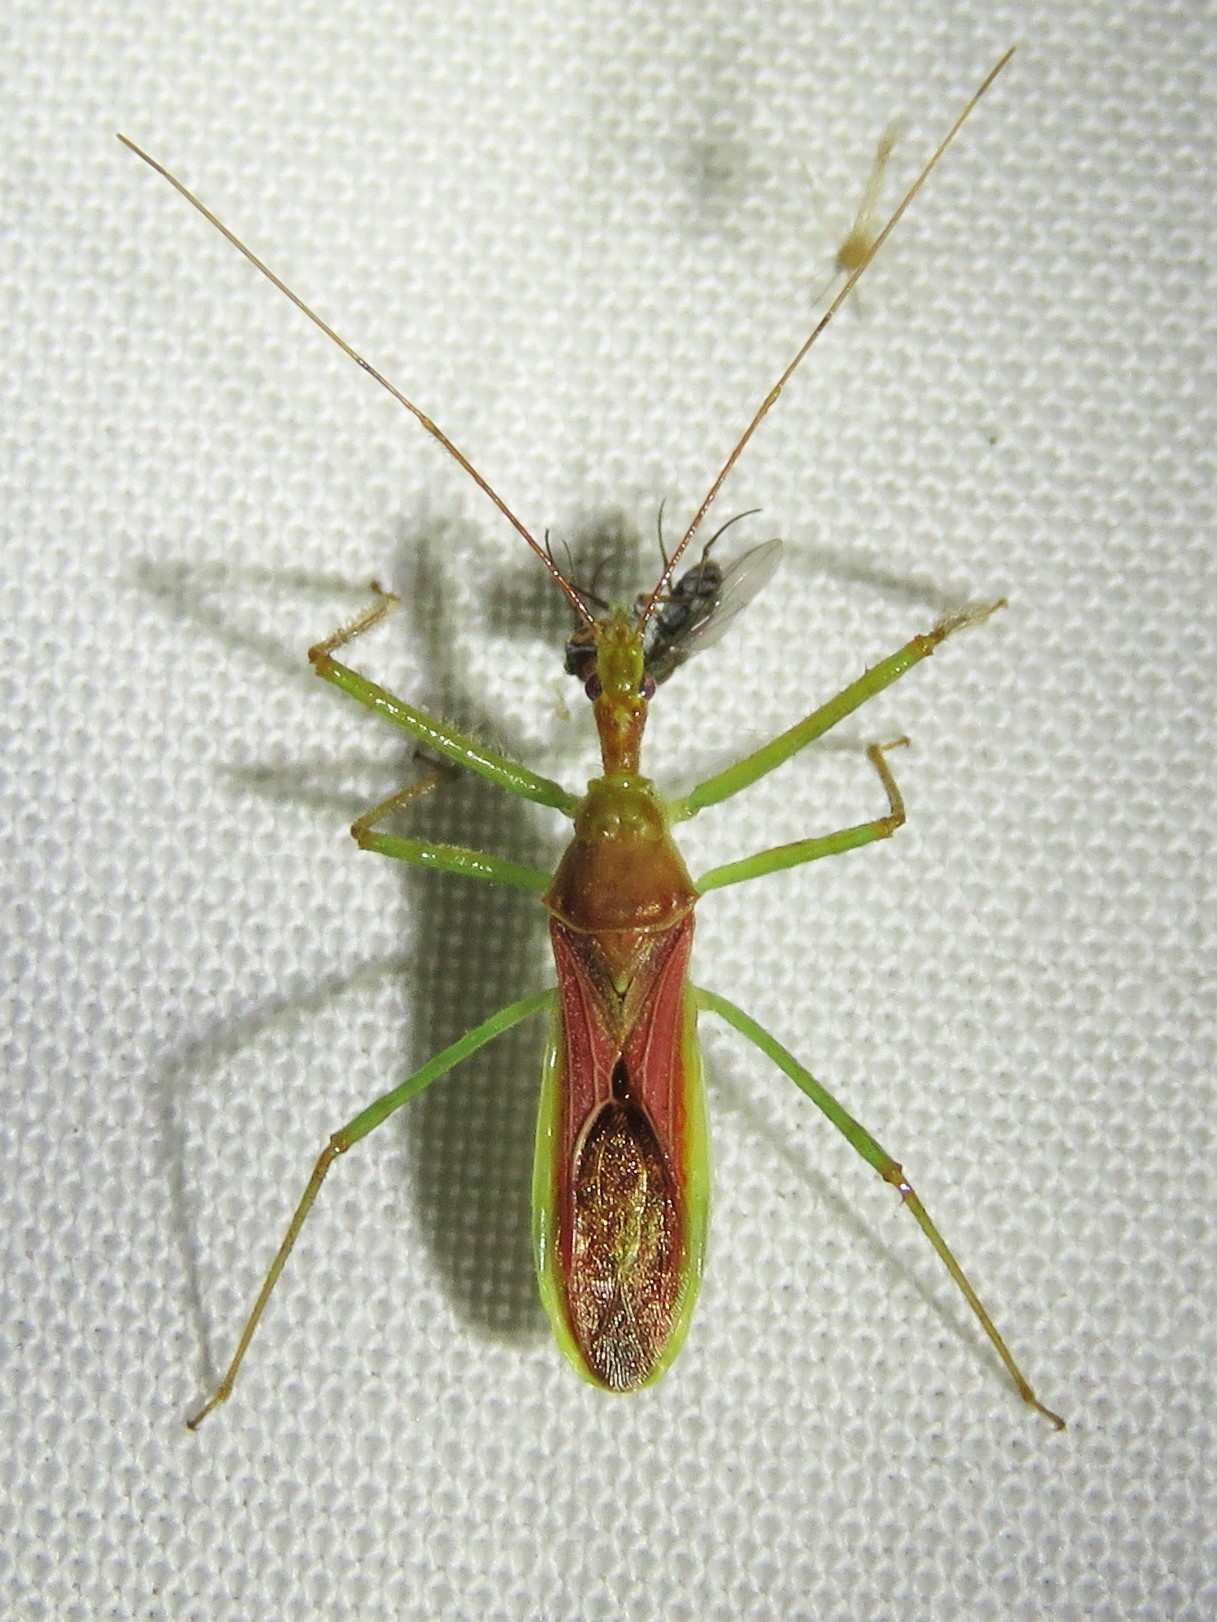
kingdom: Animalia
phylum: Arthropoda
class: Insecta
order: Hemiptera
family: Reduviidae
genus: Zelus
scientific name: Zelus renardii
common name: Assassin bug
